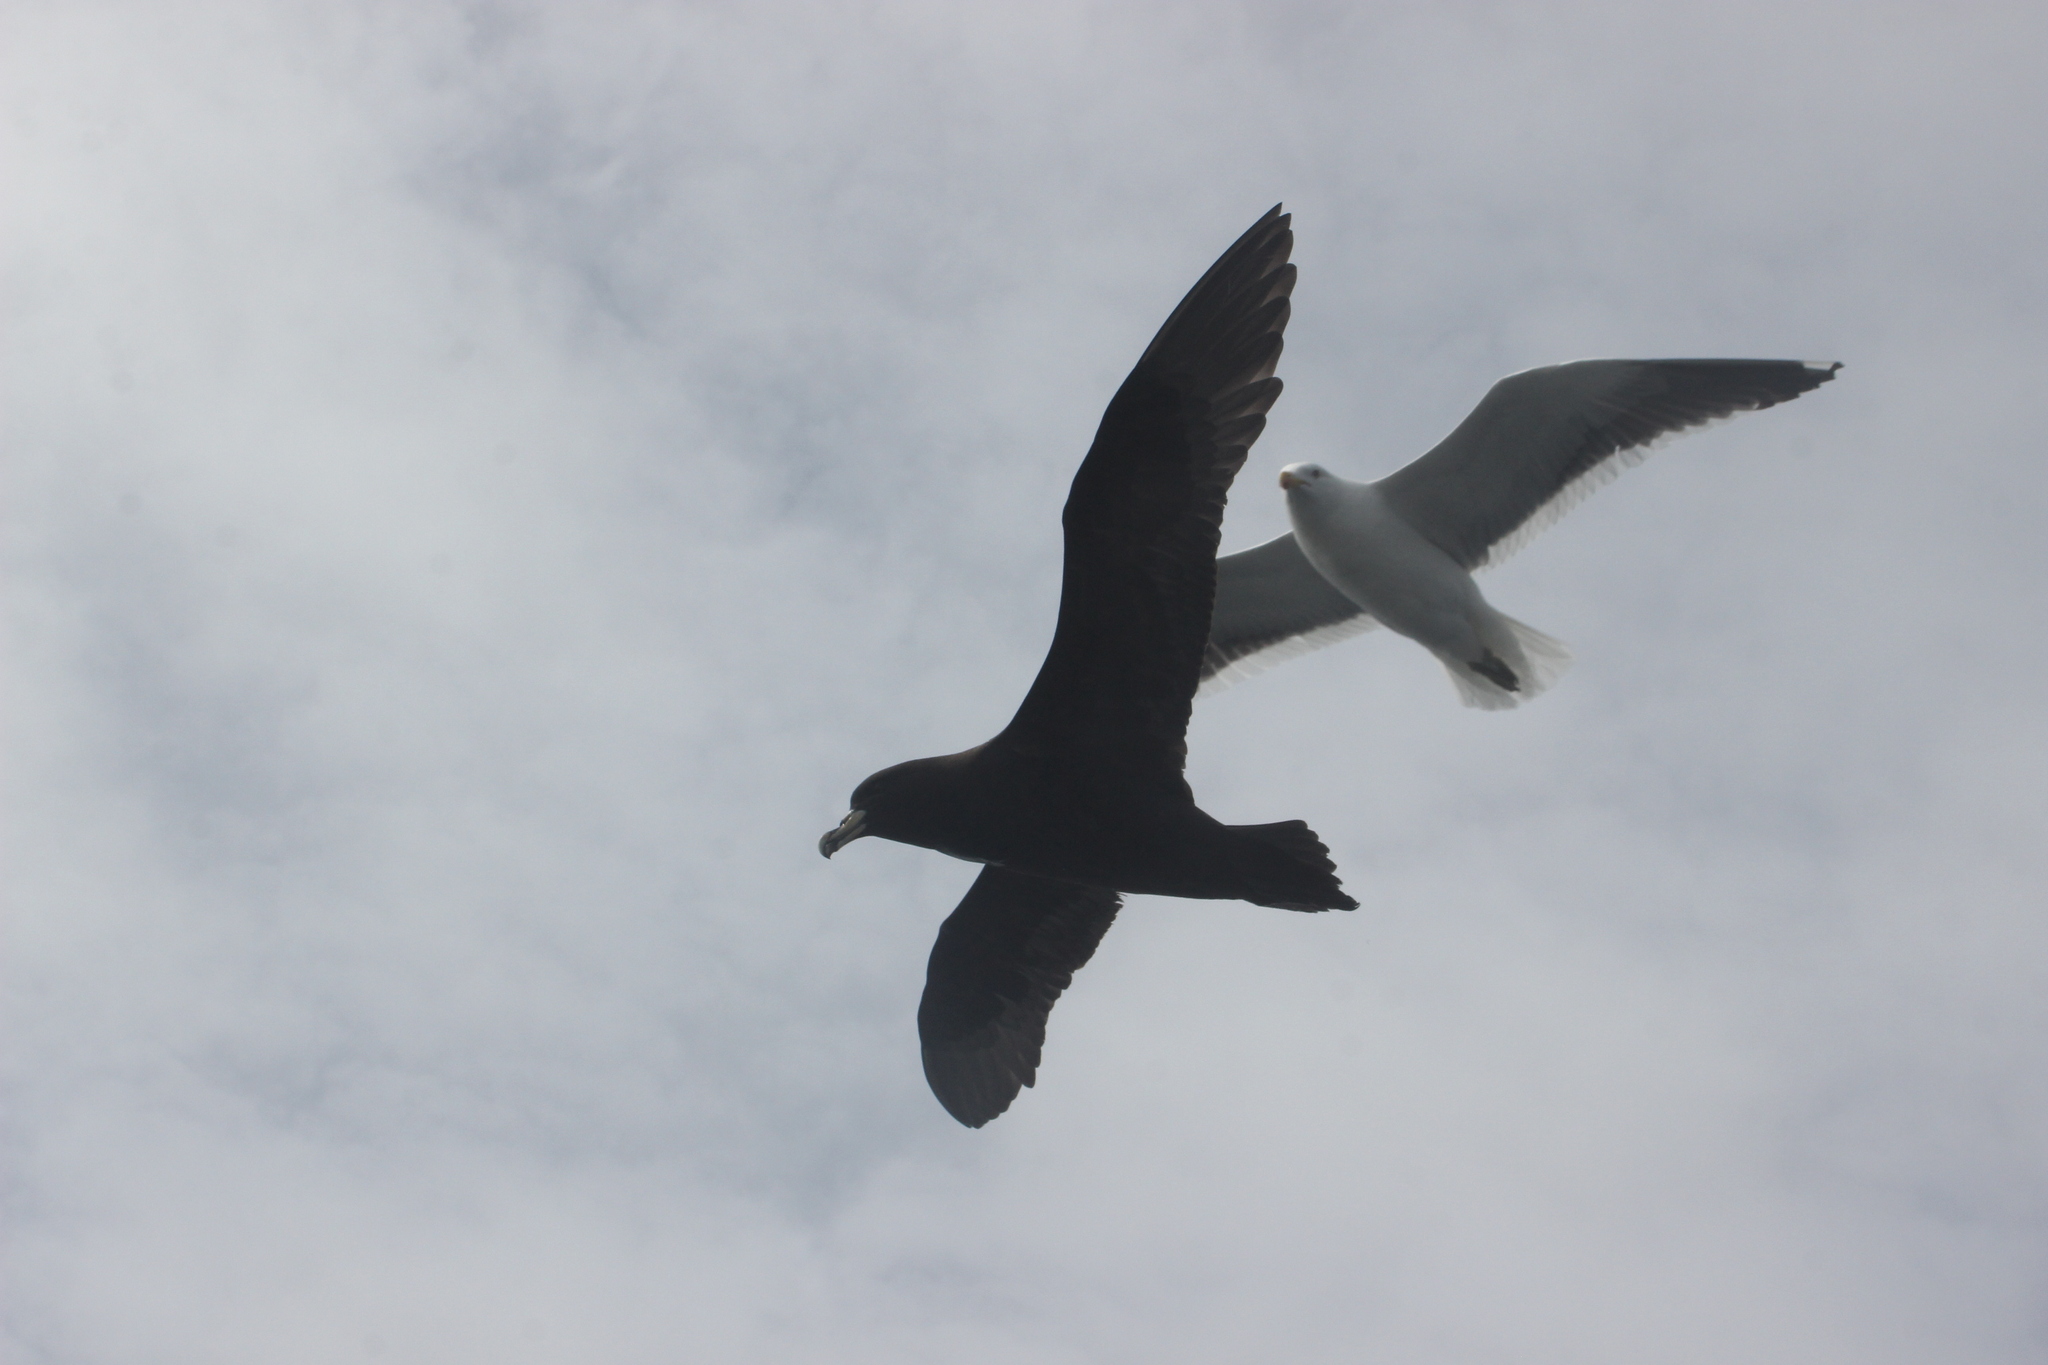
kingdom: Animalia
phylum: Chordata
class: Aves
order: Procellariiformes
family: Procellariidae
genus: Procellaria
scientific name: Procellaria aequinoctialis
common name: White-chinned petrel
